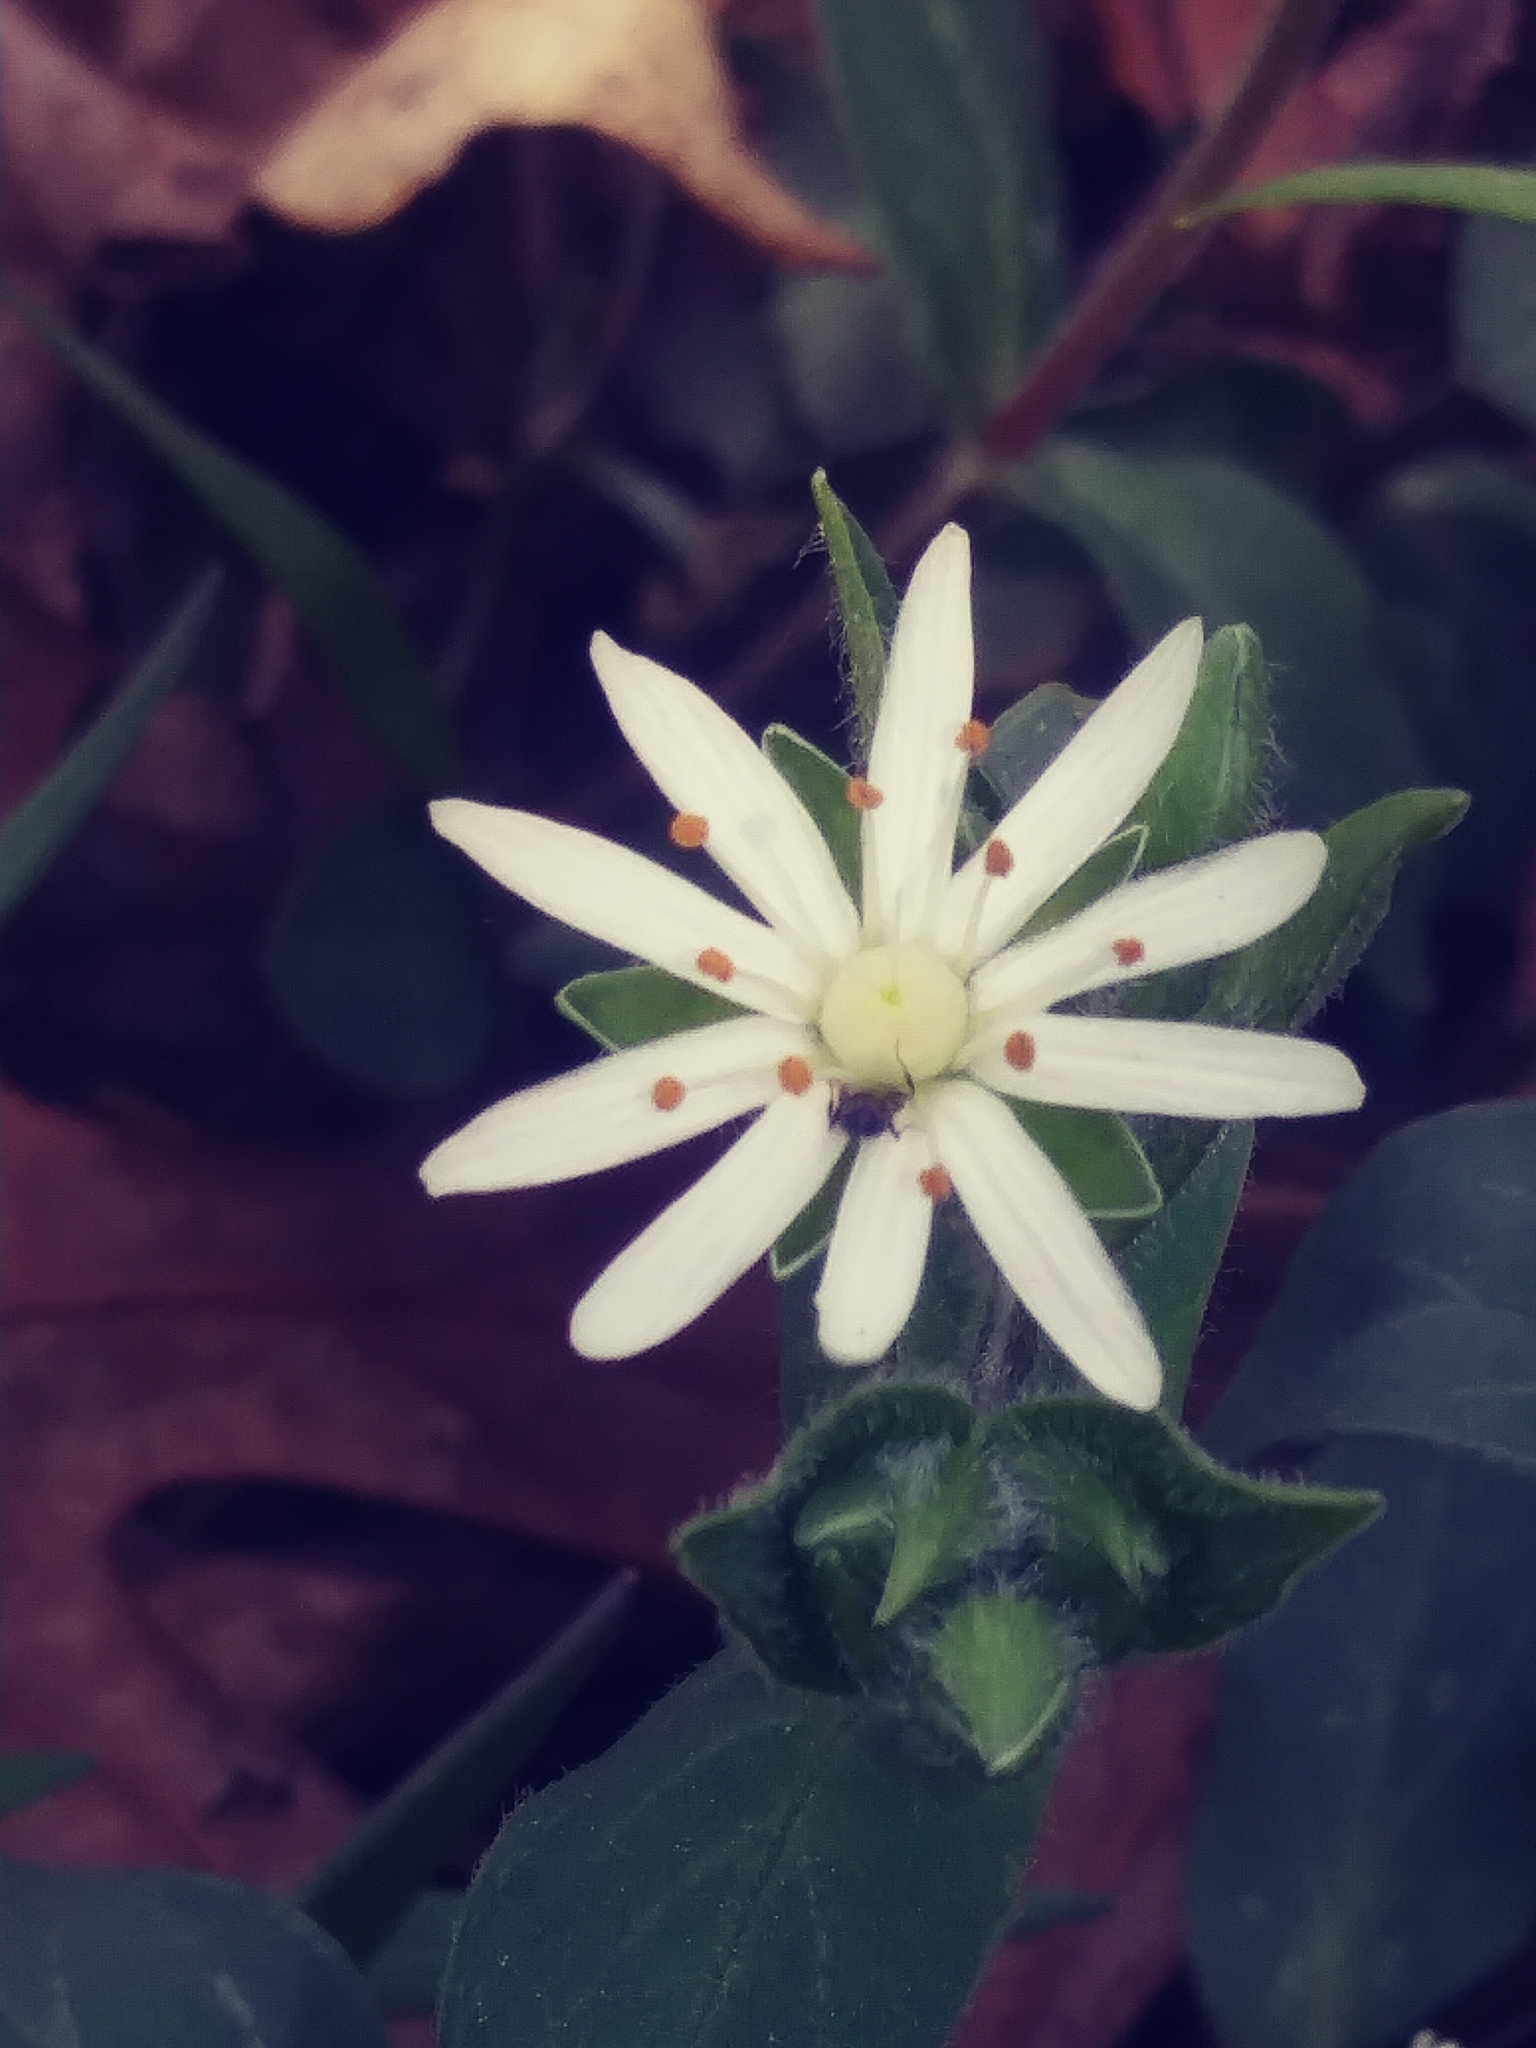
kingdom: Plantae
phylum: Tracheophyta
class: Magnoliopsida
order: Caryophyllales
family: Caryophyllaceae
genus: Stellaria
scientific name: Stellaria pubera
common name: Star chickweed
